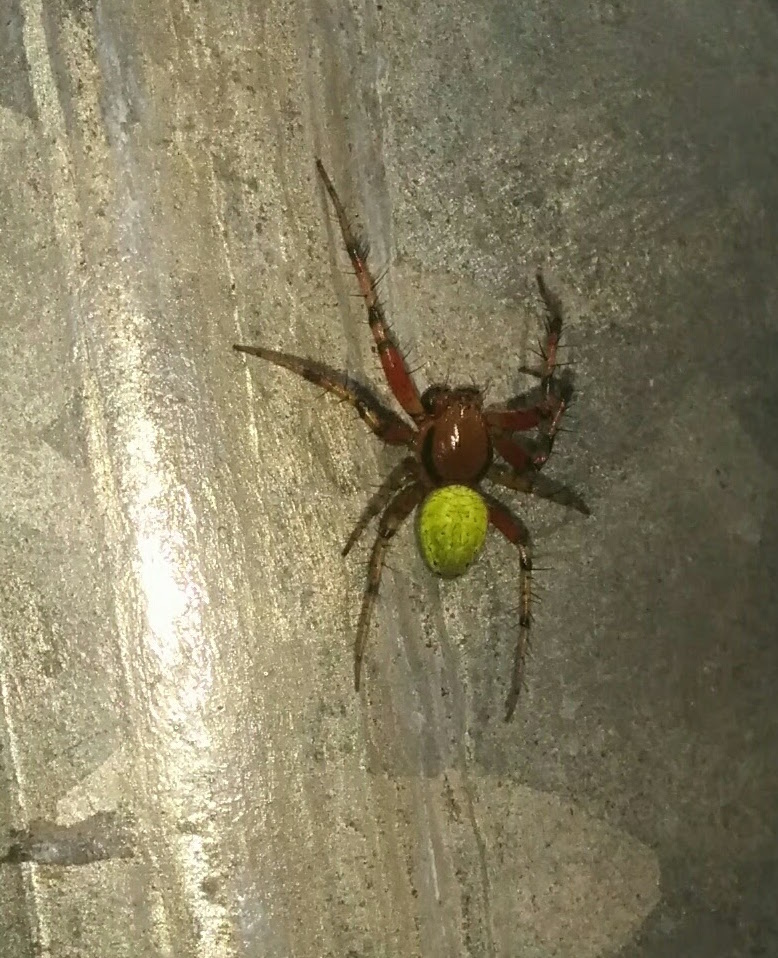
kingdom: Animalia
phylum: Arthropoda
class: Arachnida
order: Araneae
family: Araneidae
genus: Araniella
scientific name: Araniella
